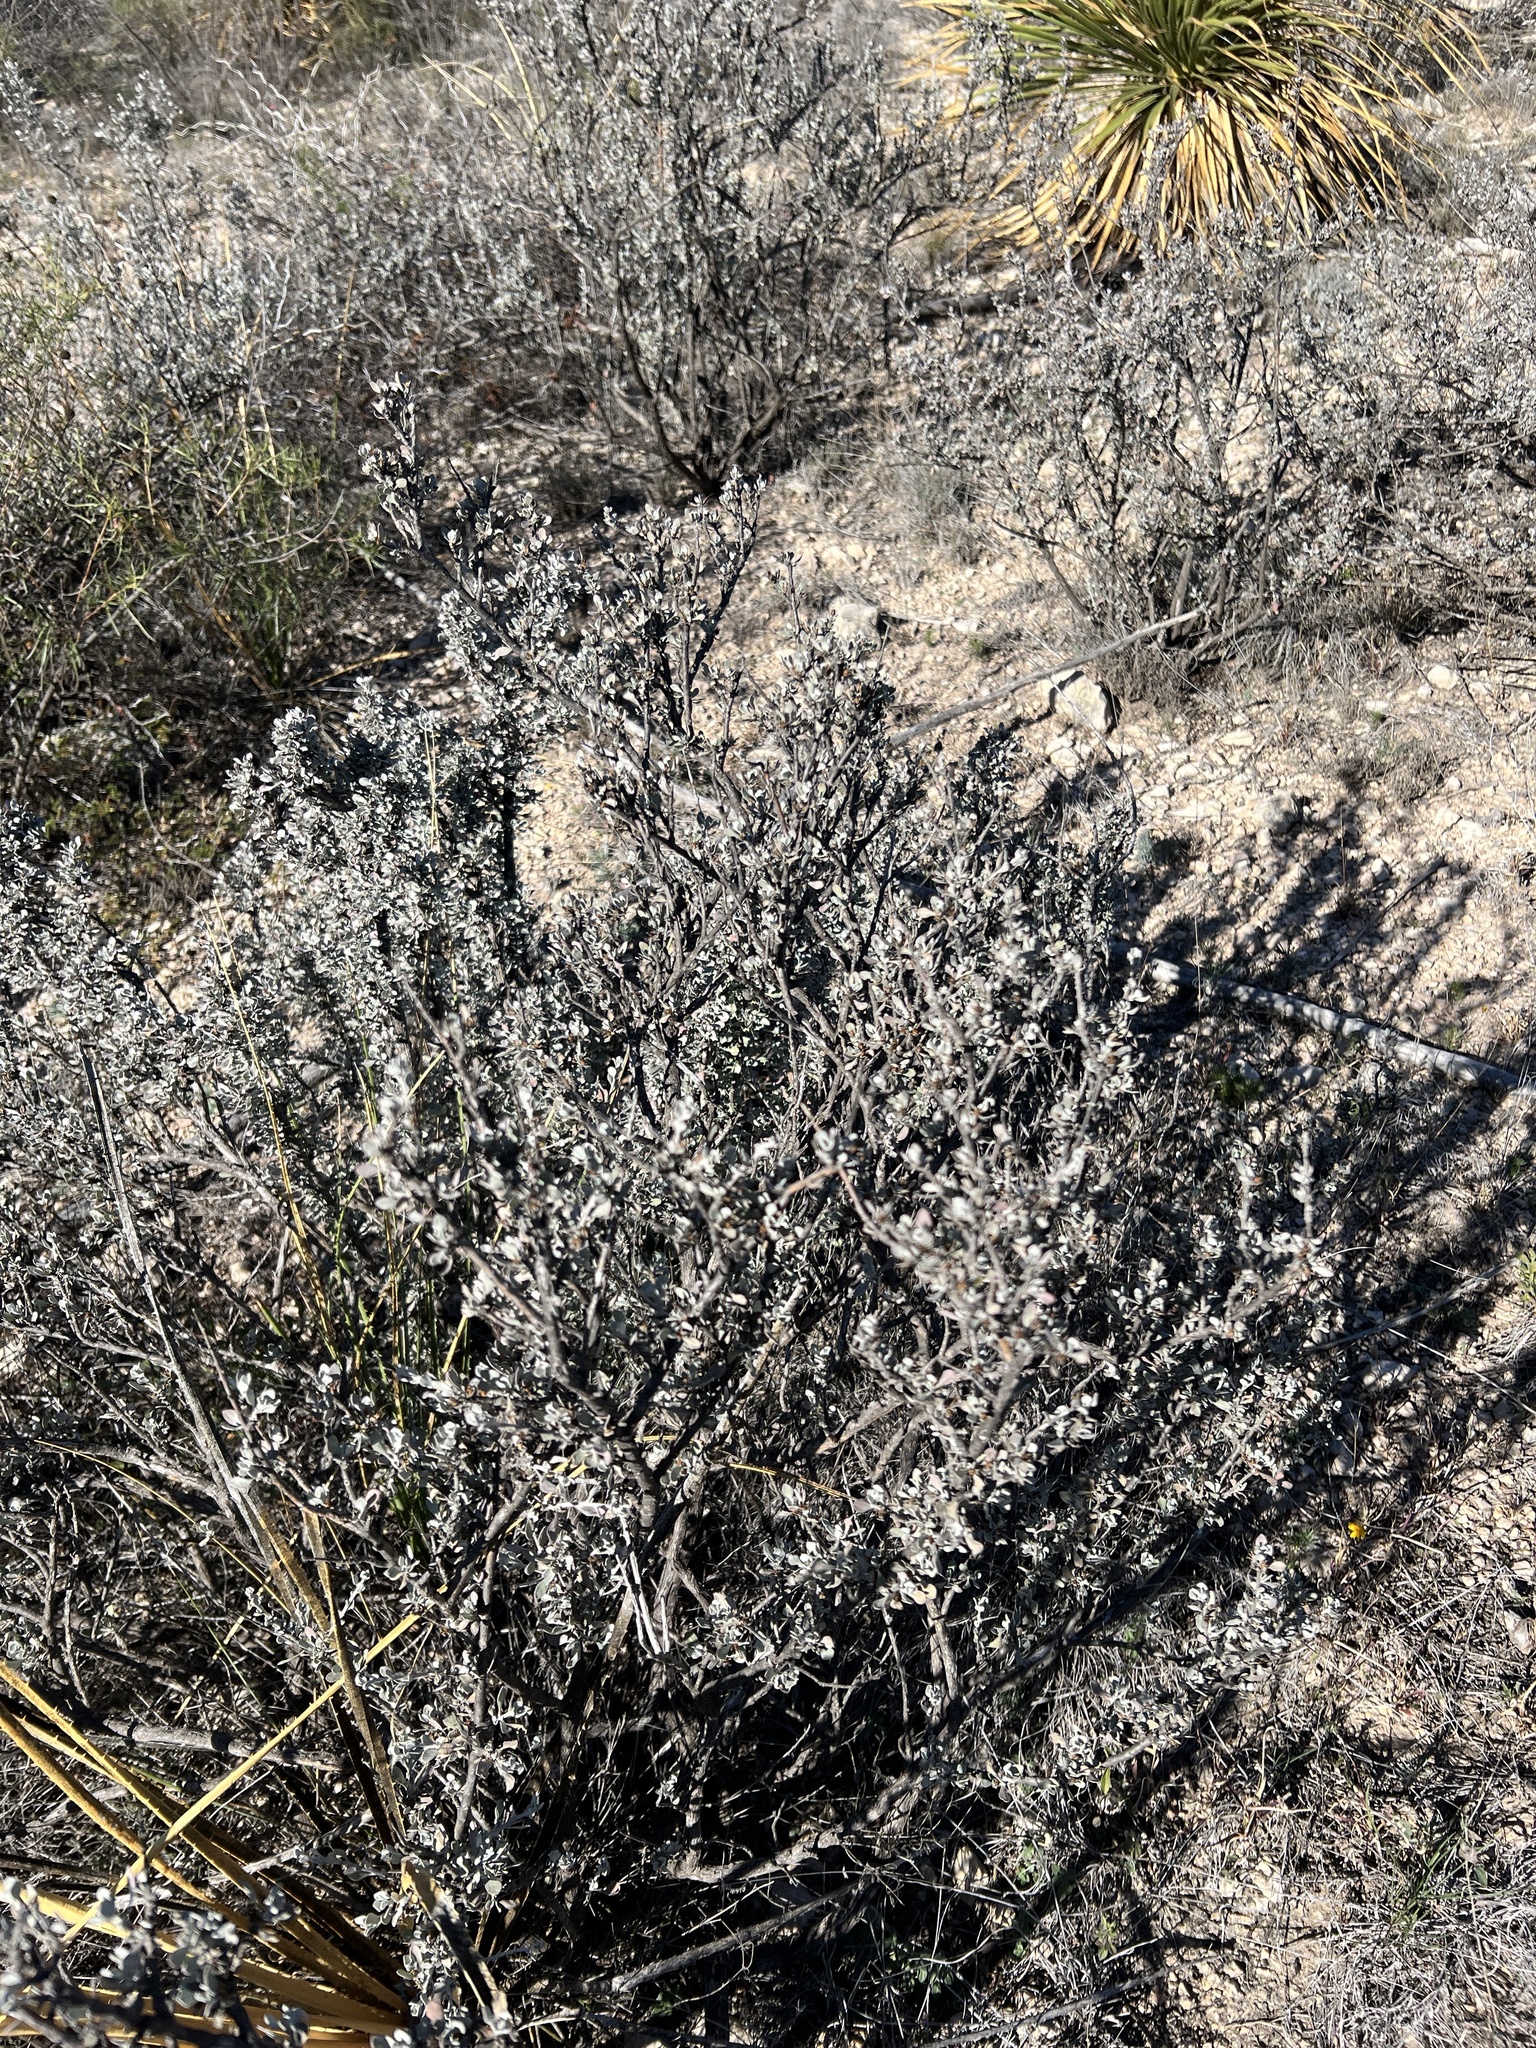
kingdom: Plantae
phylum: Tracheophyta
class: Magnoliopsida
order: Lamiales
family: Scrophulariaceae
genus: Leucophyllum
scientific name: Leucophyllum minus
